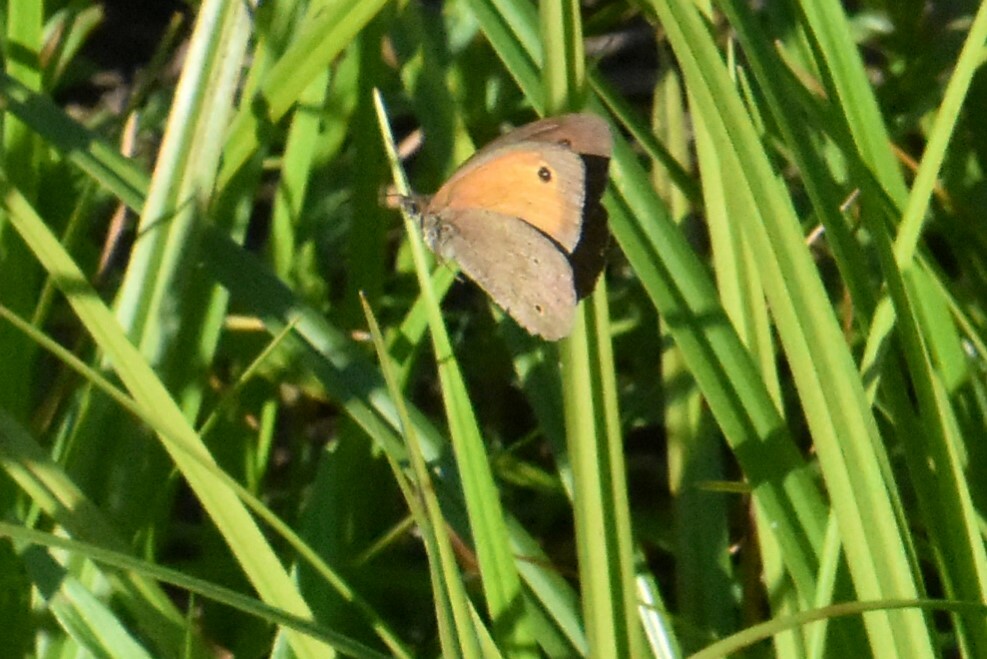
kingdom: Animalia
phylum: Arthropoda
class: Insecta
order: Lepidoptera
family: Nymphalidae
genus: Maniola
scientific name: Maniola jurtina
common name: Meadow brown
